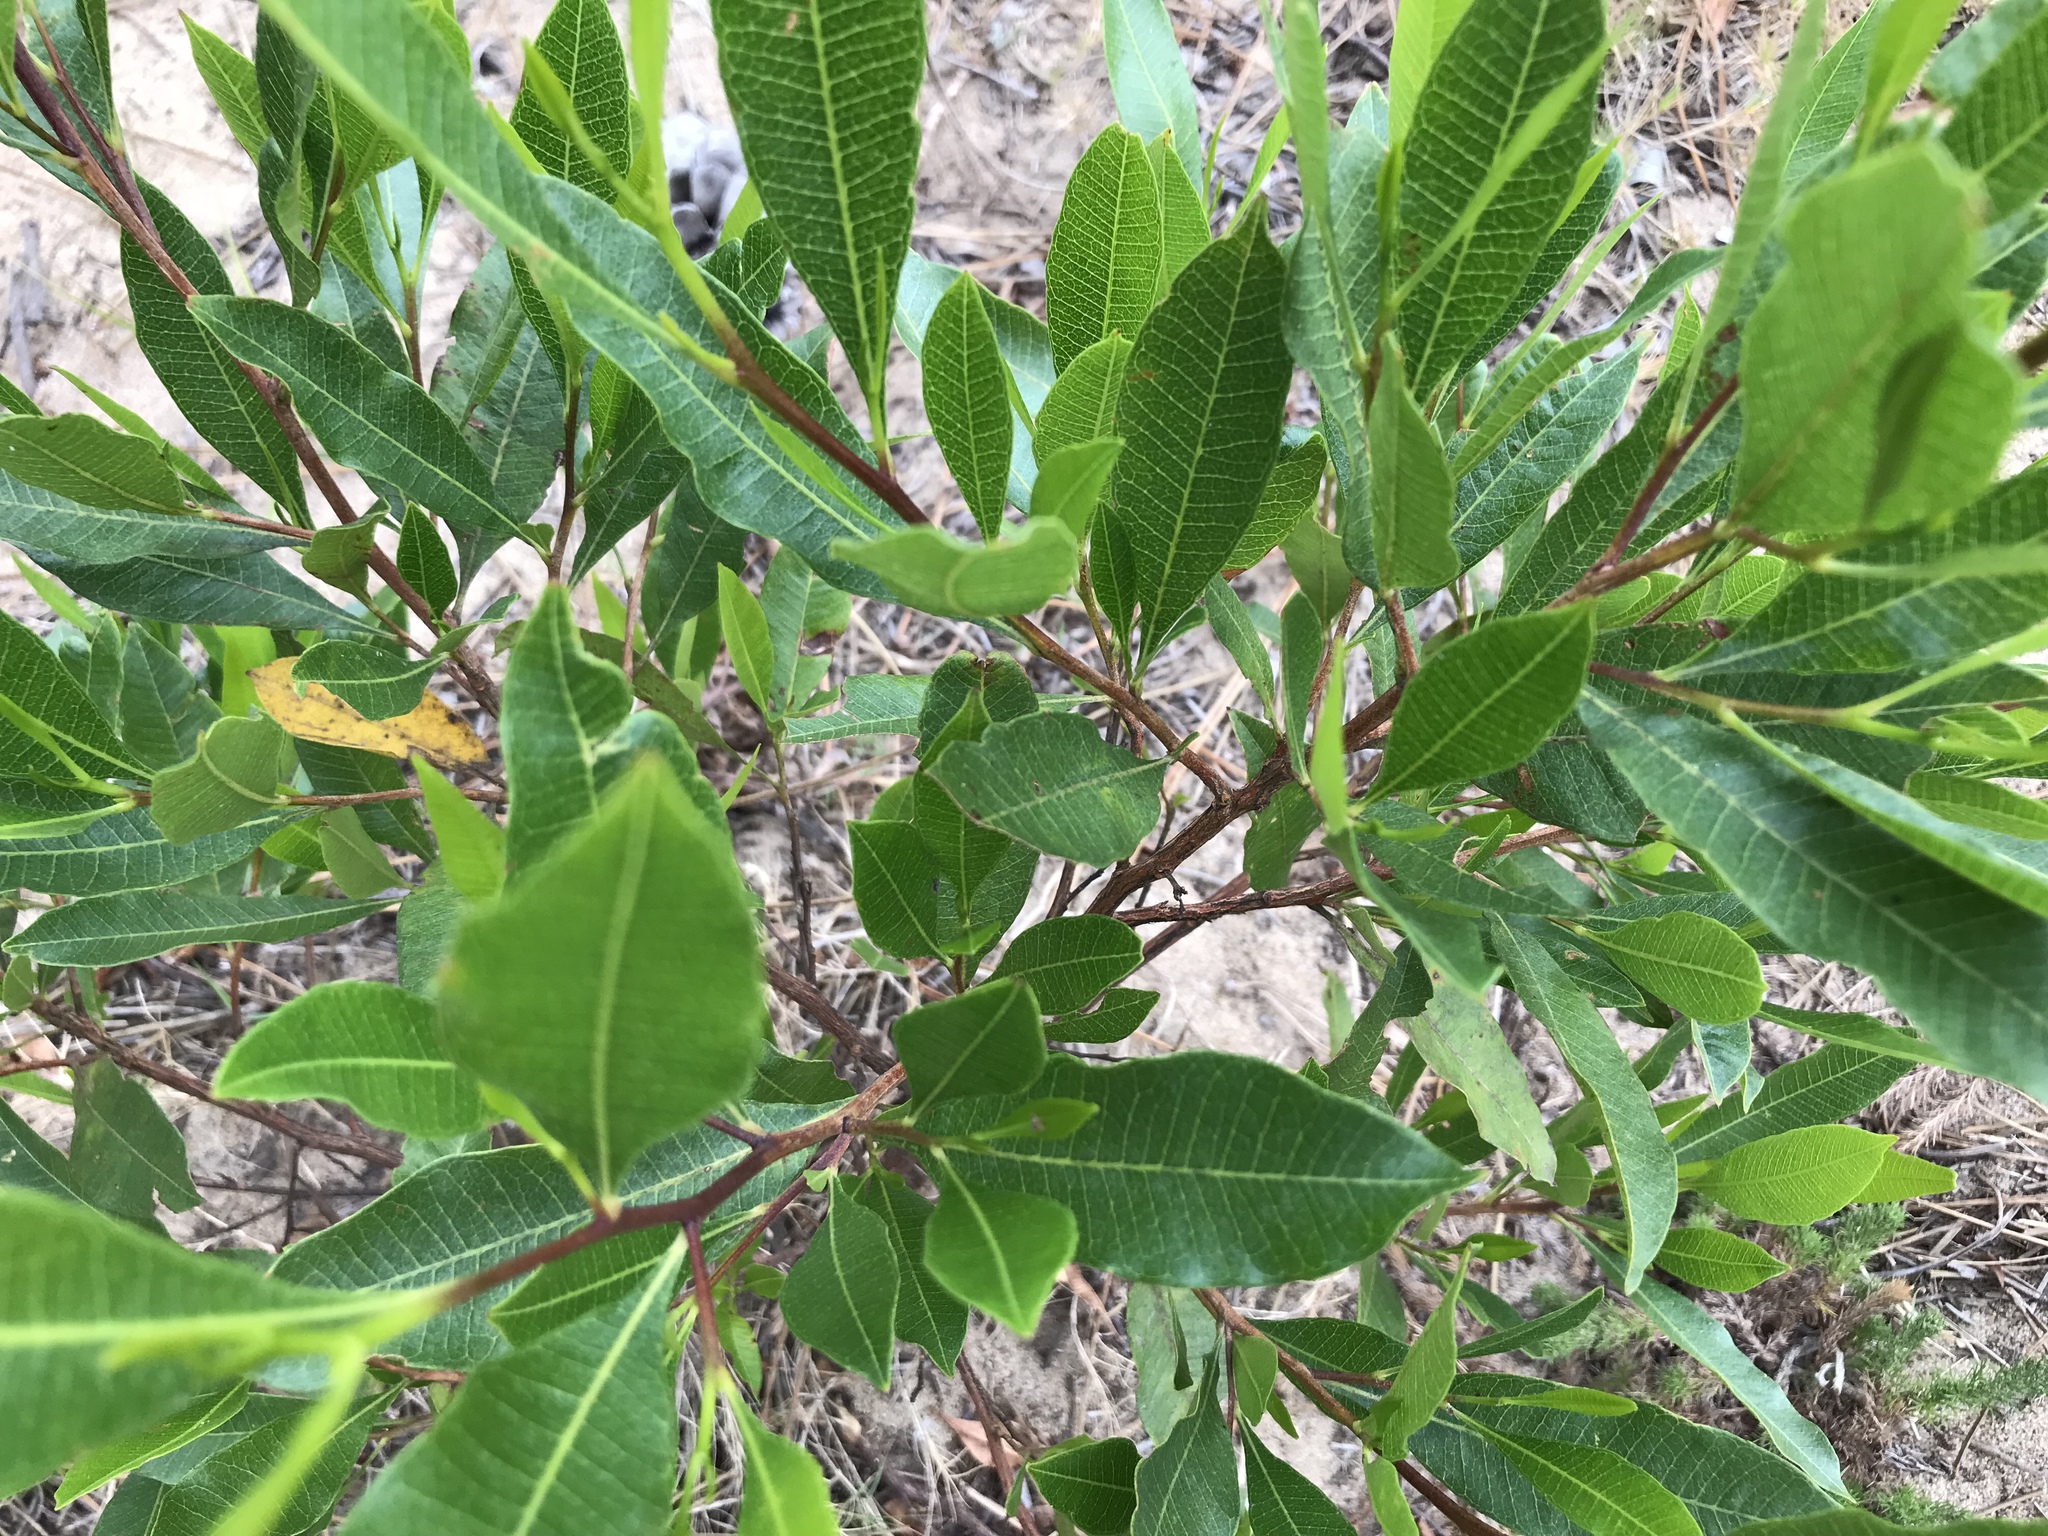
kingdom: Plantae
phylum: Tracheophyta
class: Magnoliopsida
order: Sapindales
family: Sapindaceae
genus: Dodonaea
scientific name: Dodonaea viscosa
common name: Hopbush
